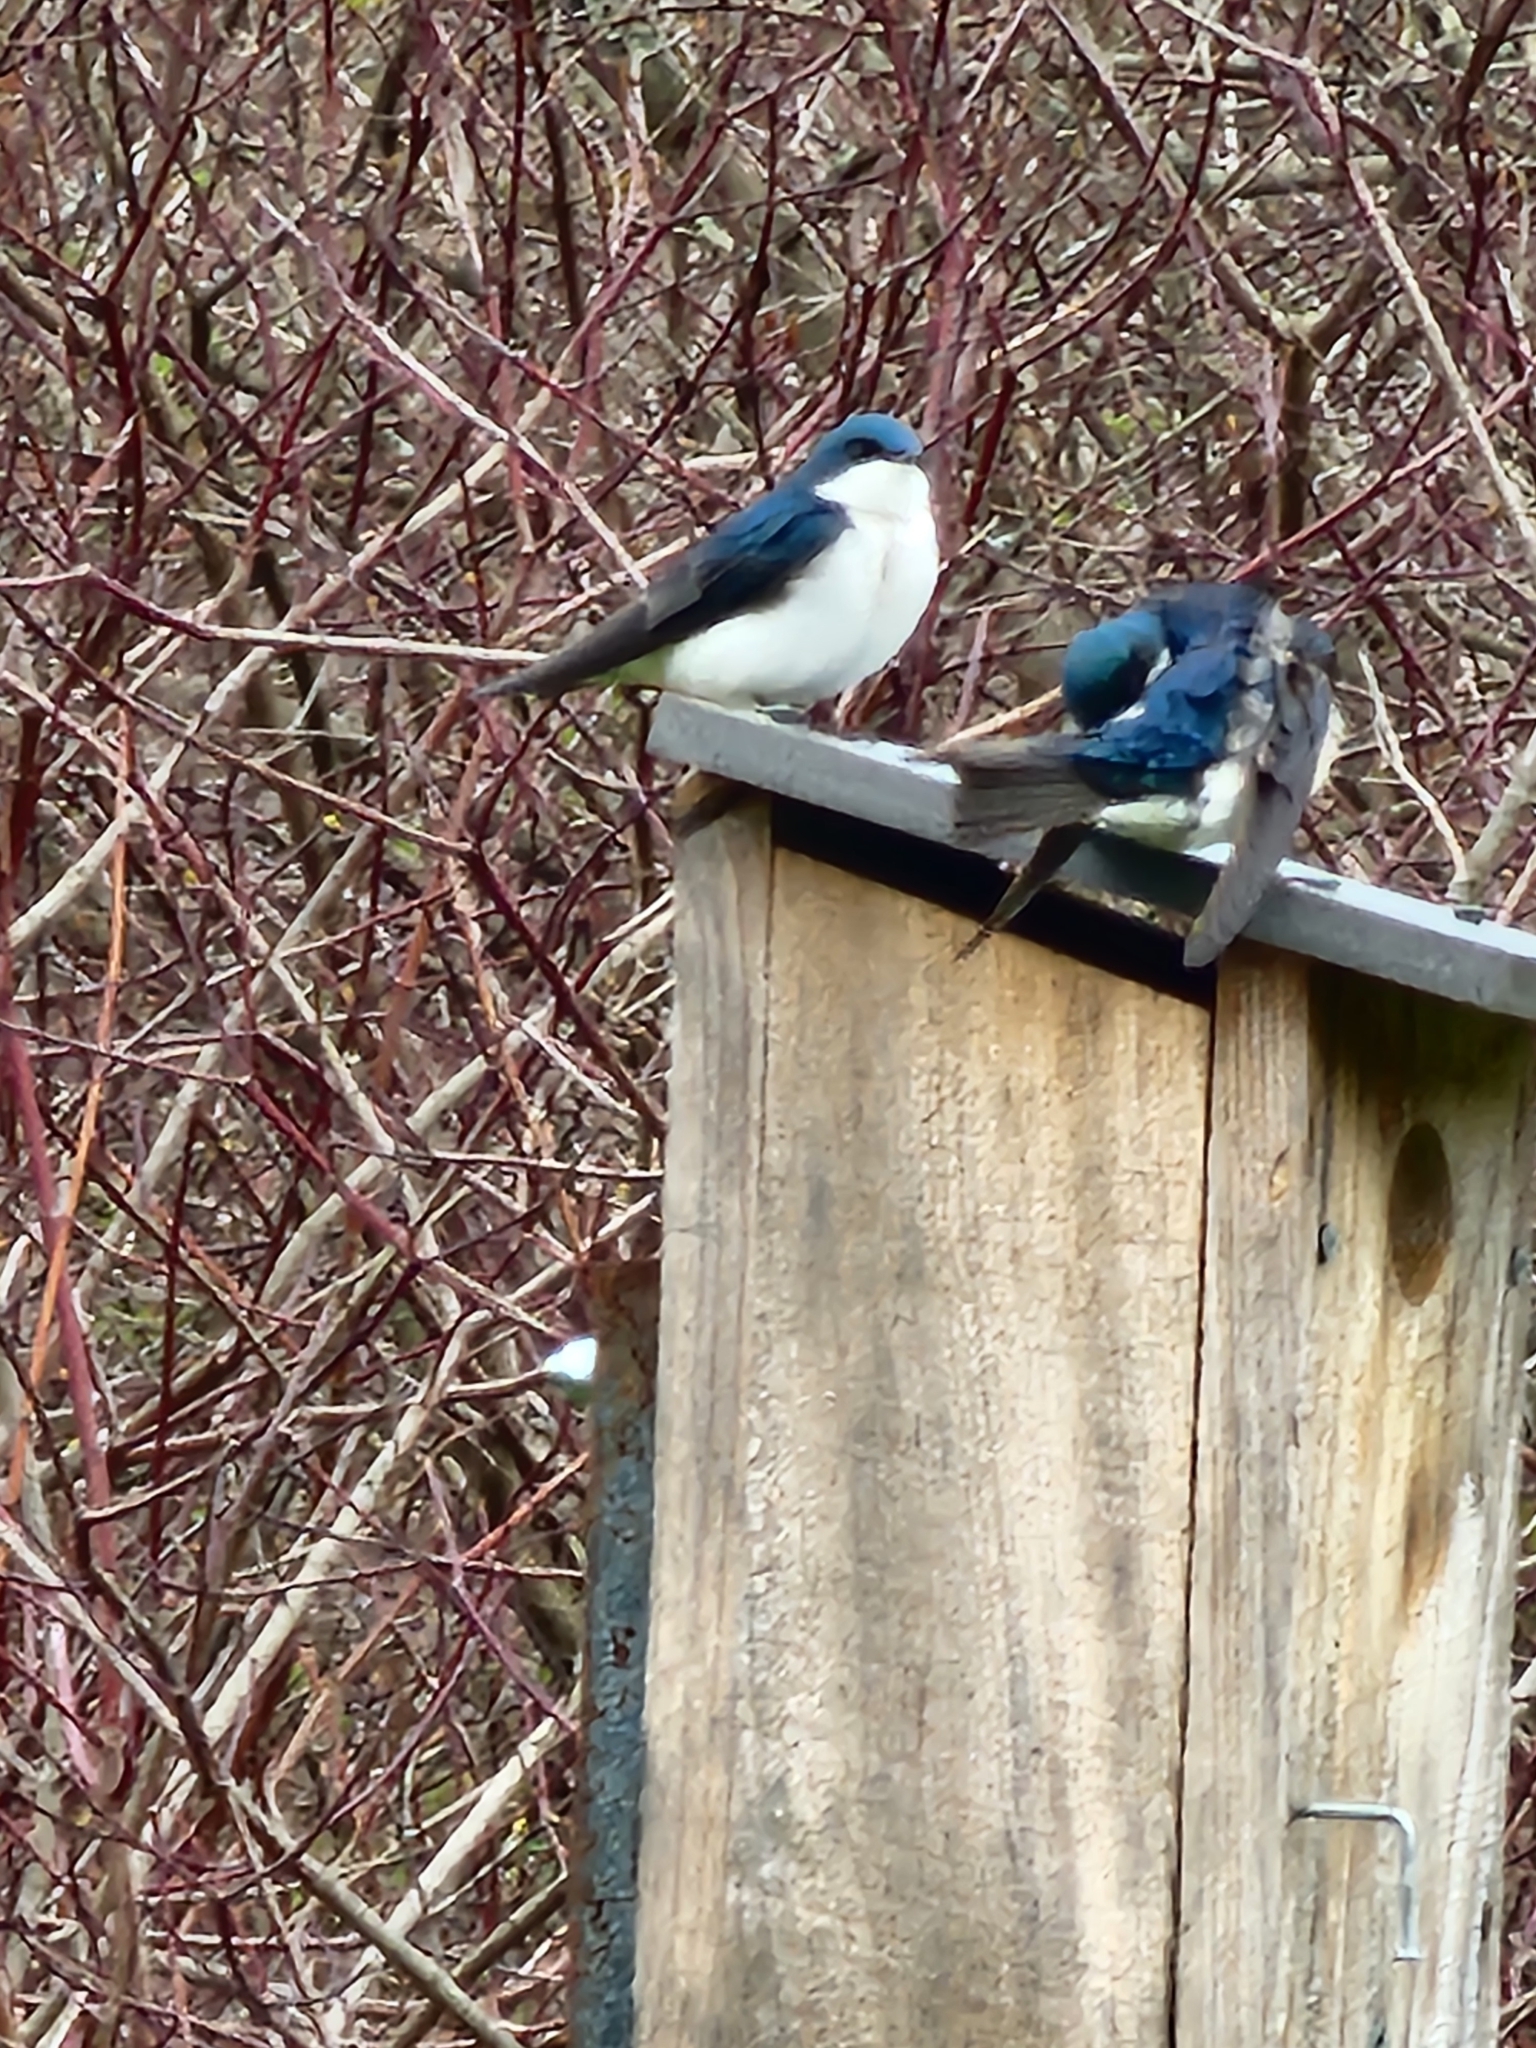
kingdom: Animalia
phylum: Chordata
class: Aves
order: Passeriformes
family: Hirundinidae
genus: Tachycineta
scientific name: Tachycineta bicolor
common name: Tree swallow
